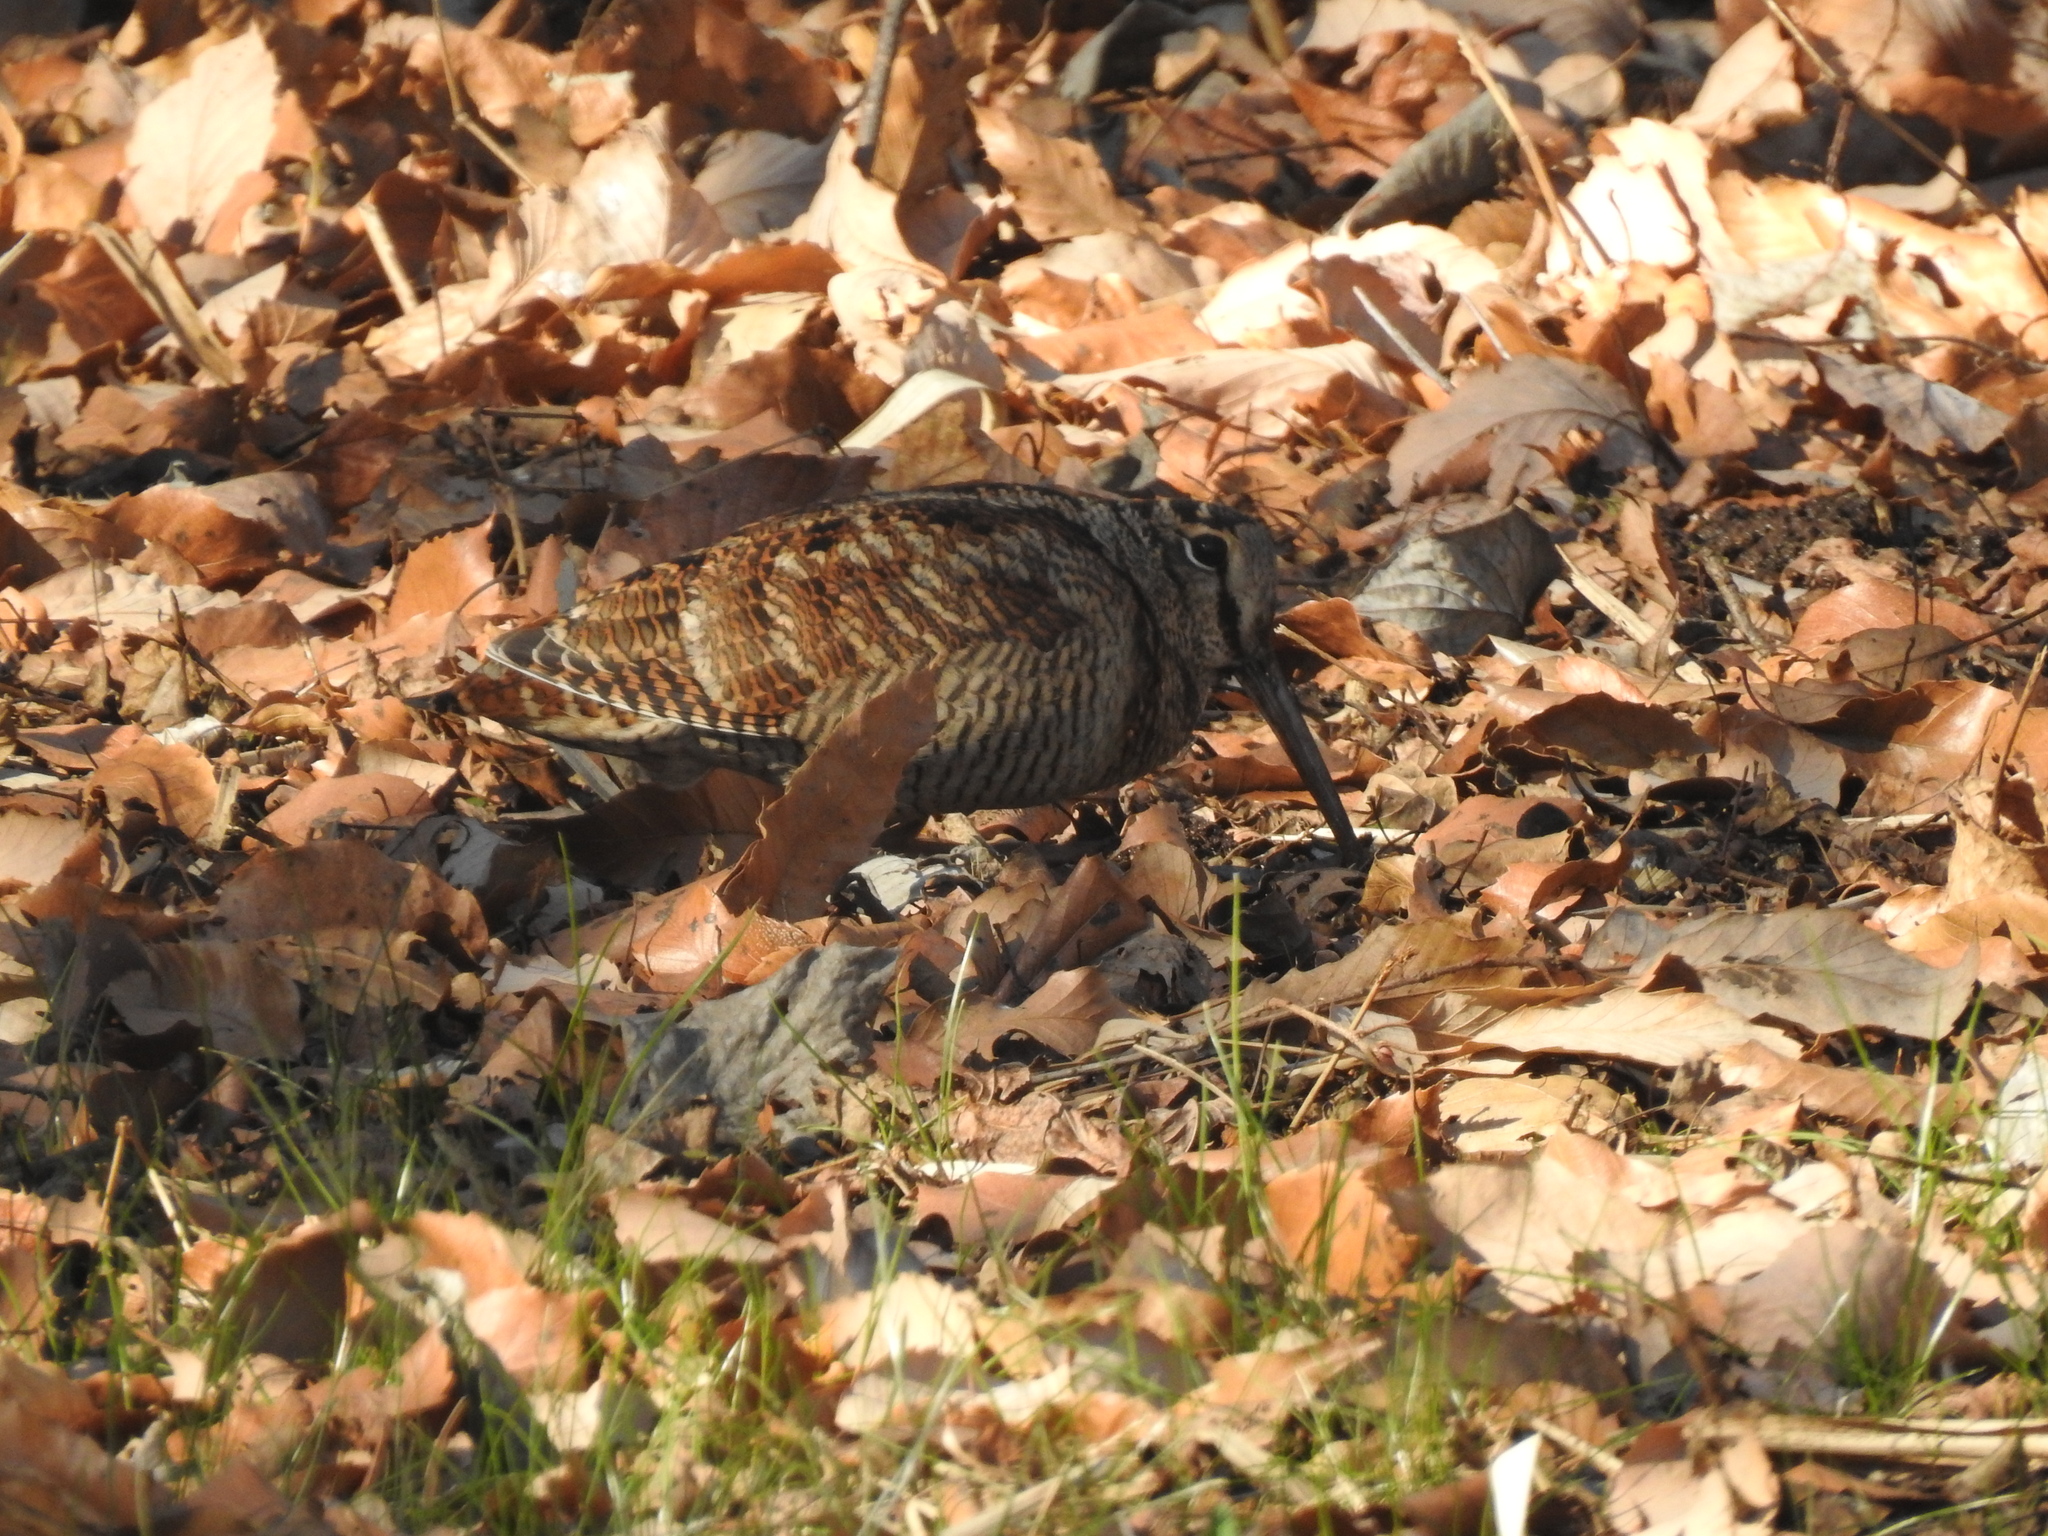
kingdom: Animalia
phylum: Chordata
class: Aves
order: Charadriiformes
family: Scolopacidae
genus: Scolopax
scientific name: Scolopax rusticola
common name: Eurasian woodcock
